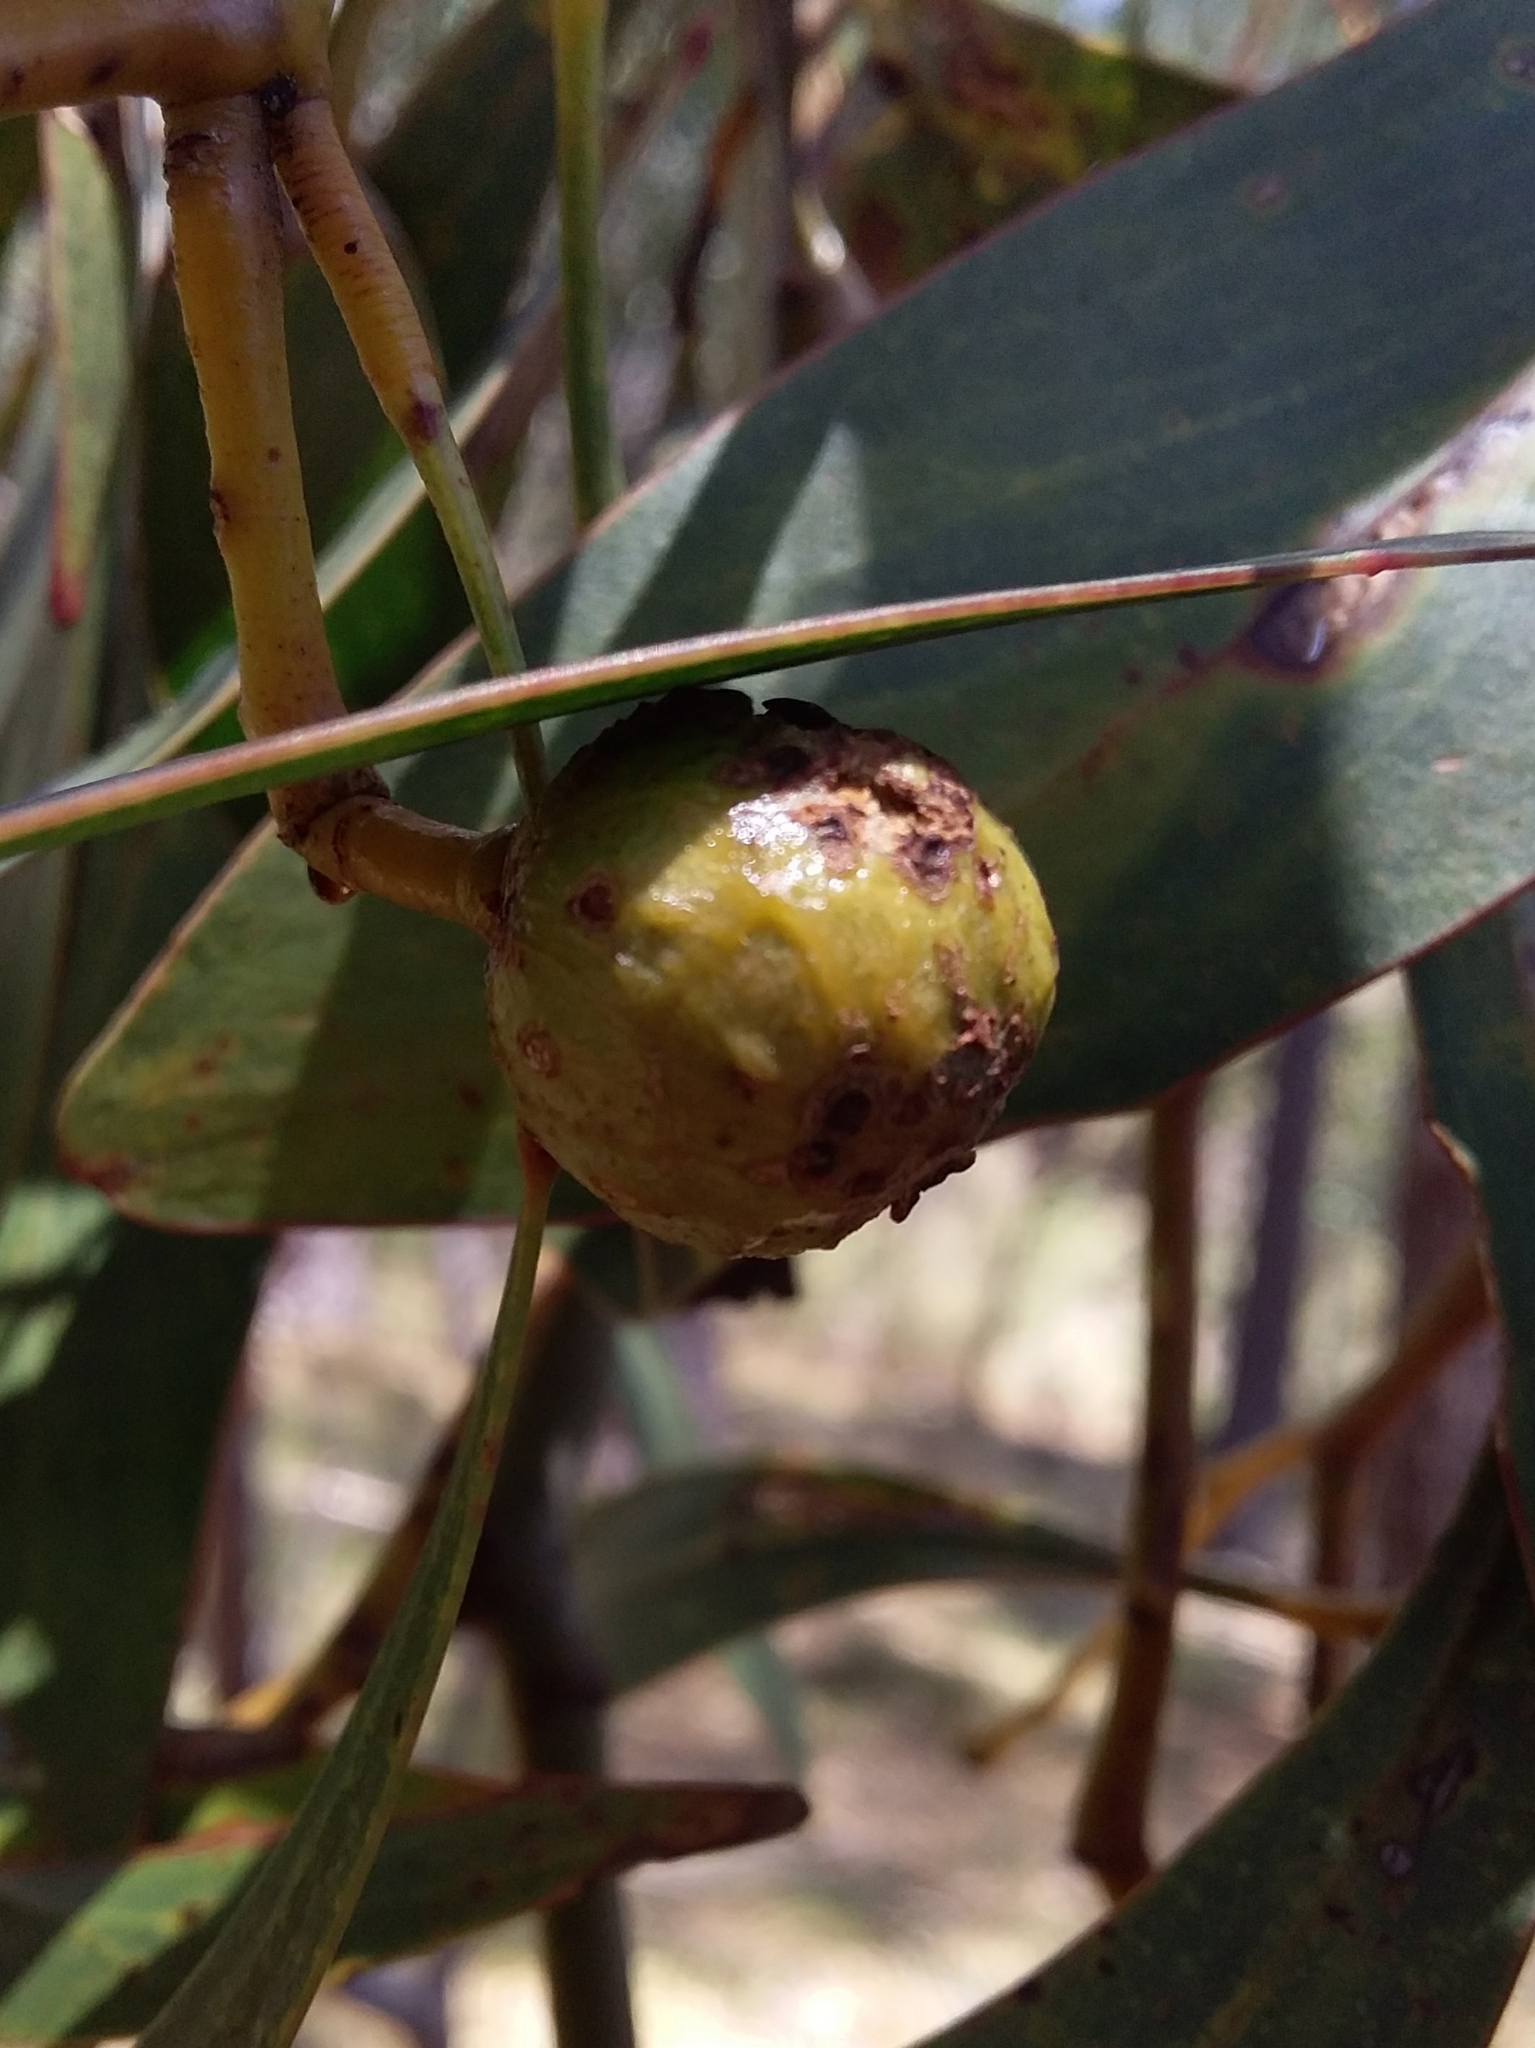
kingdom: Animalia
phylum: Arthropoda
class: Insecta
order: Hymenoptera
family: Pteromalidae
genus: Trichilogaster
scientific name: Trichilogaster signiventris
